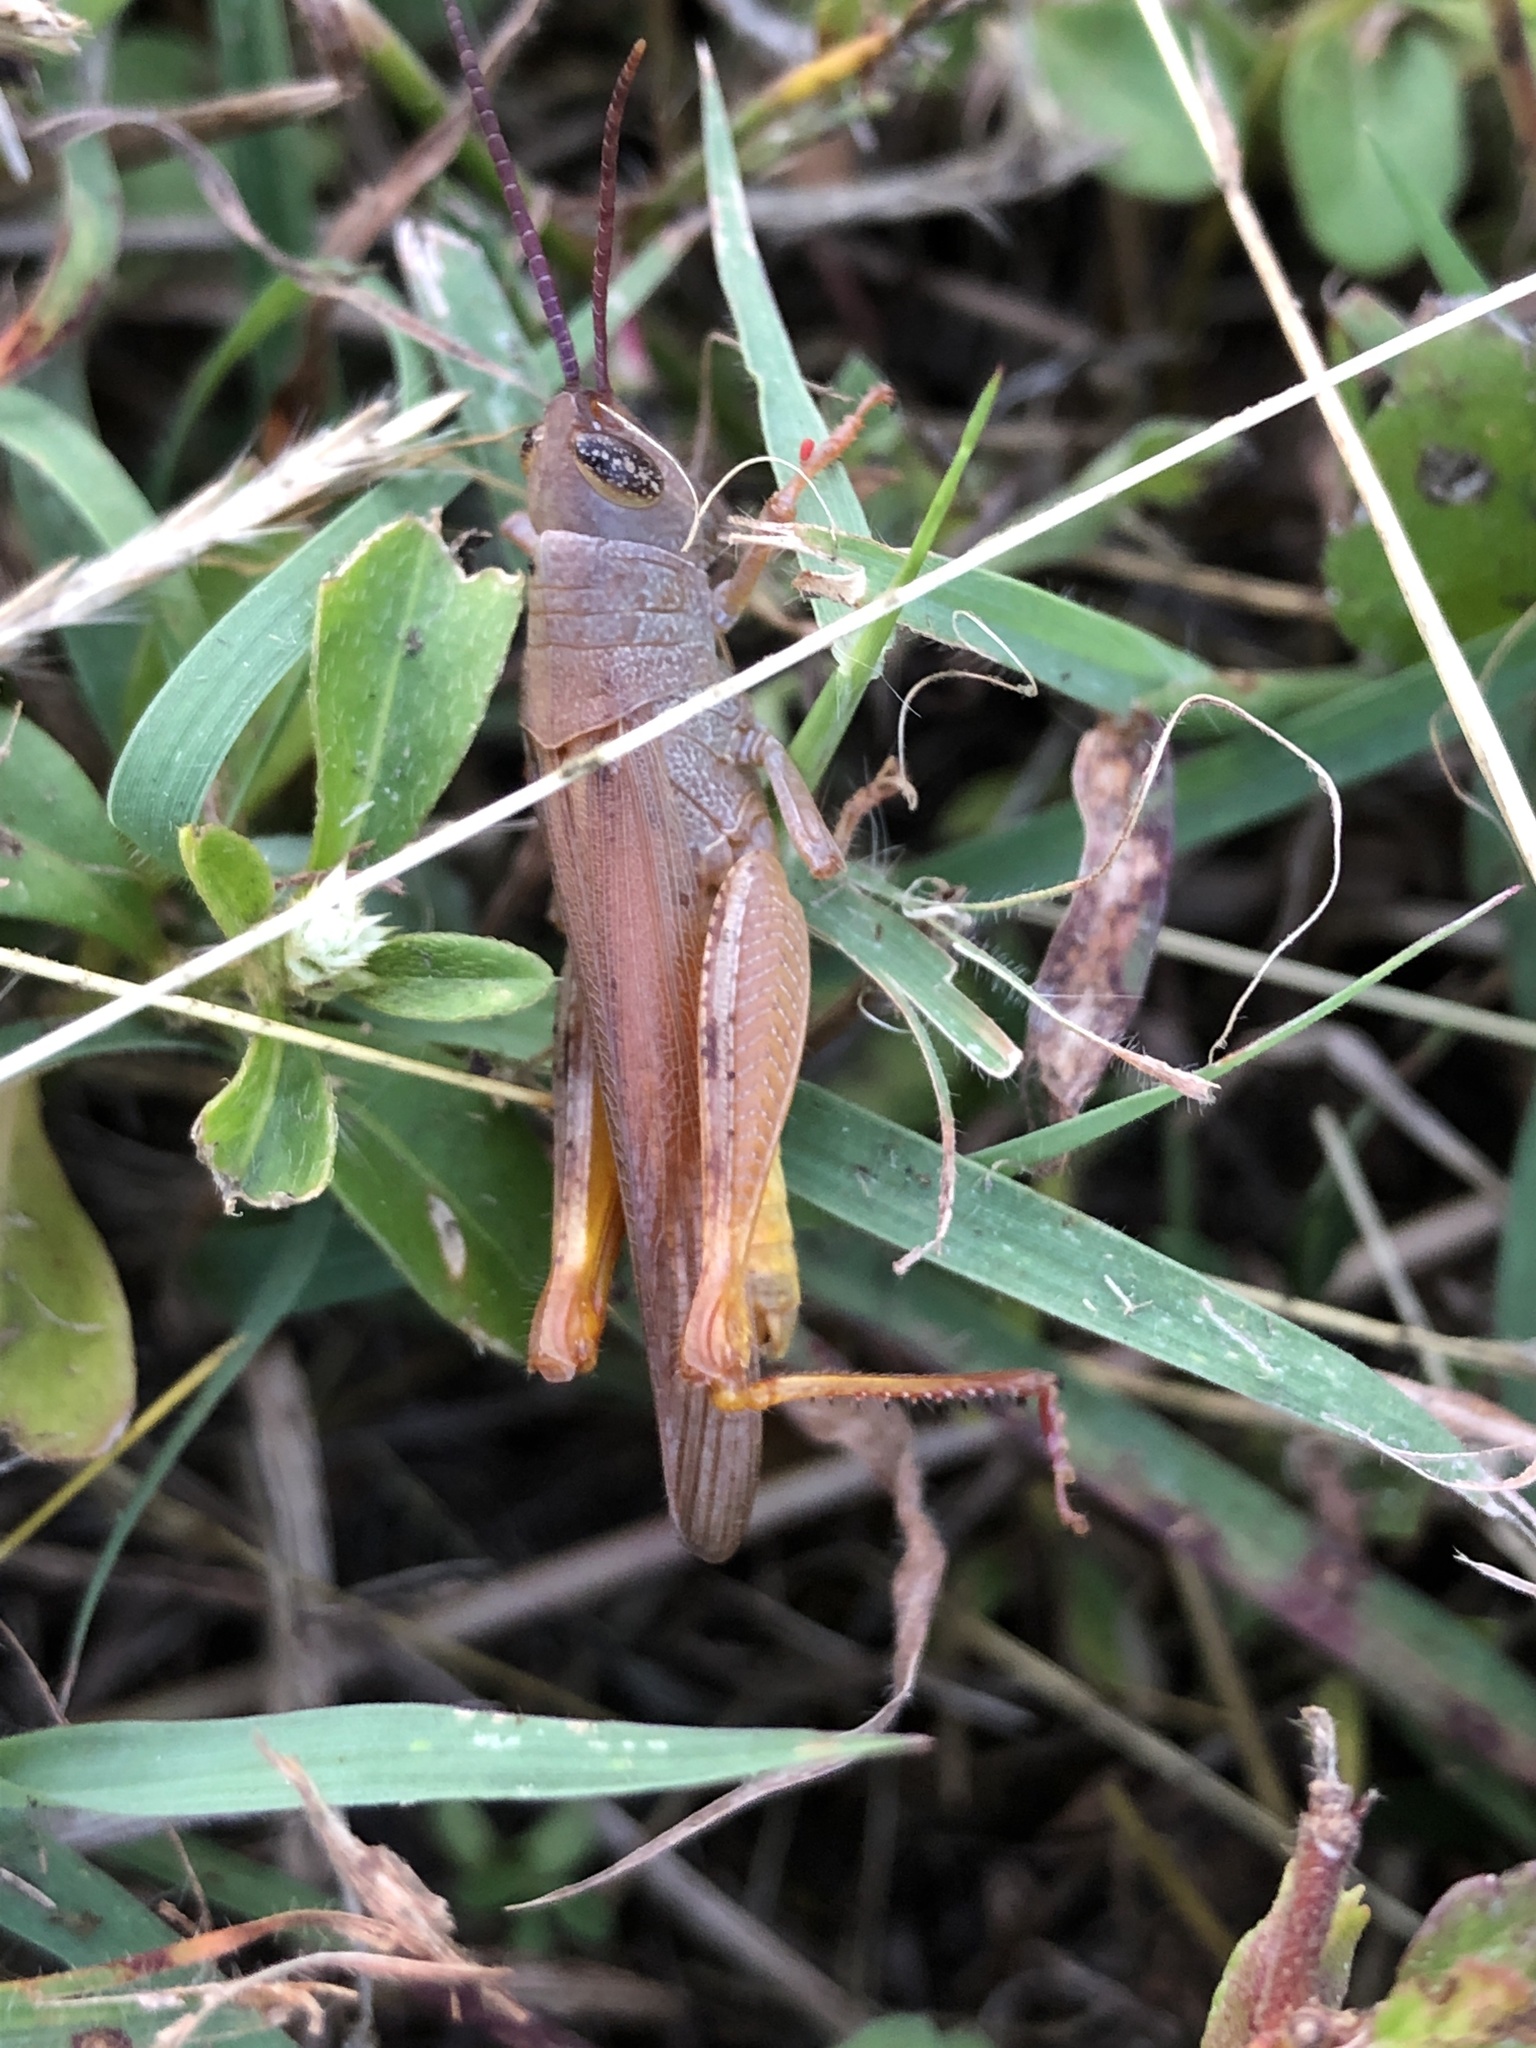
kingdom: Animalia
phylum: Arthropoda
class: Insecta
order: Orthoptera
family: Acrididae
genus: Adlappa
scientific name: Adlappa erythroptera
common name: Speckled red-wing
